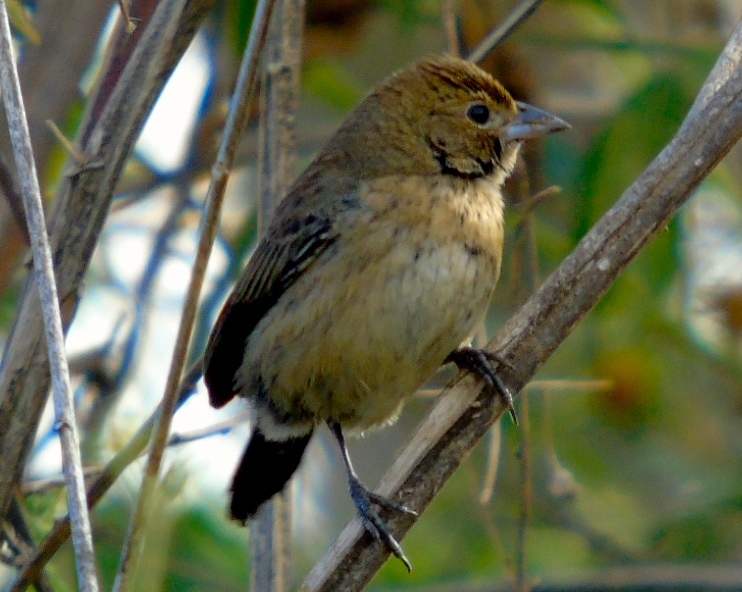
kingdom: Animalia
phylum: Chordata
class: Aves
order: Passeriformes
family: Thraupidae
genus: Volatinia
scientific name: Volatinia jacarina
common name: Blue-black grassquit
